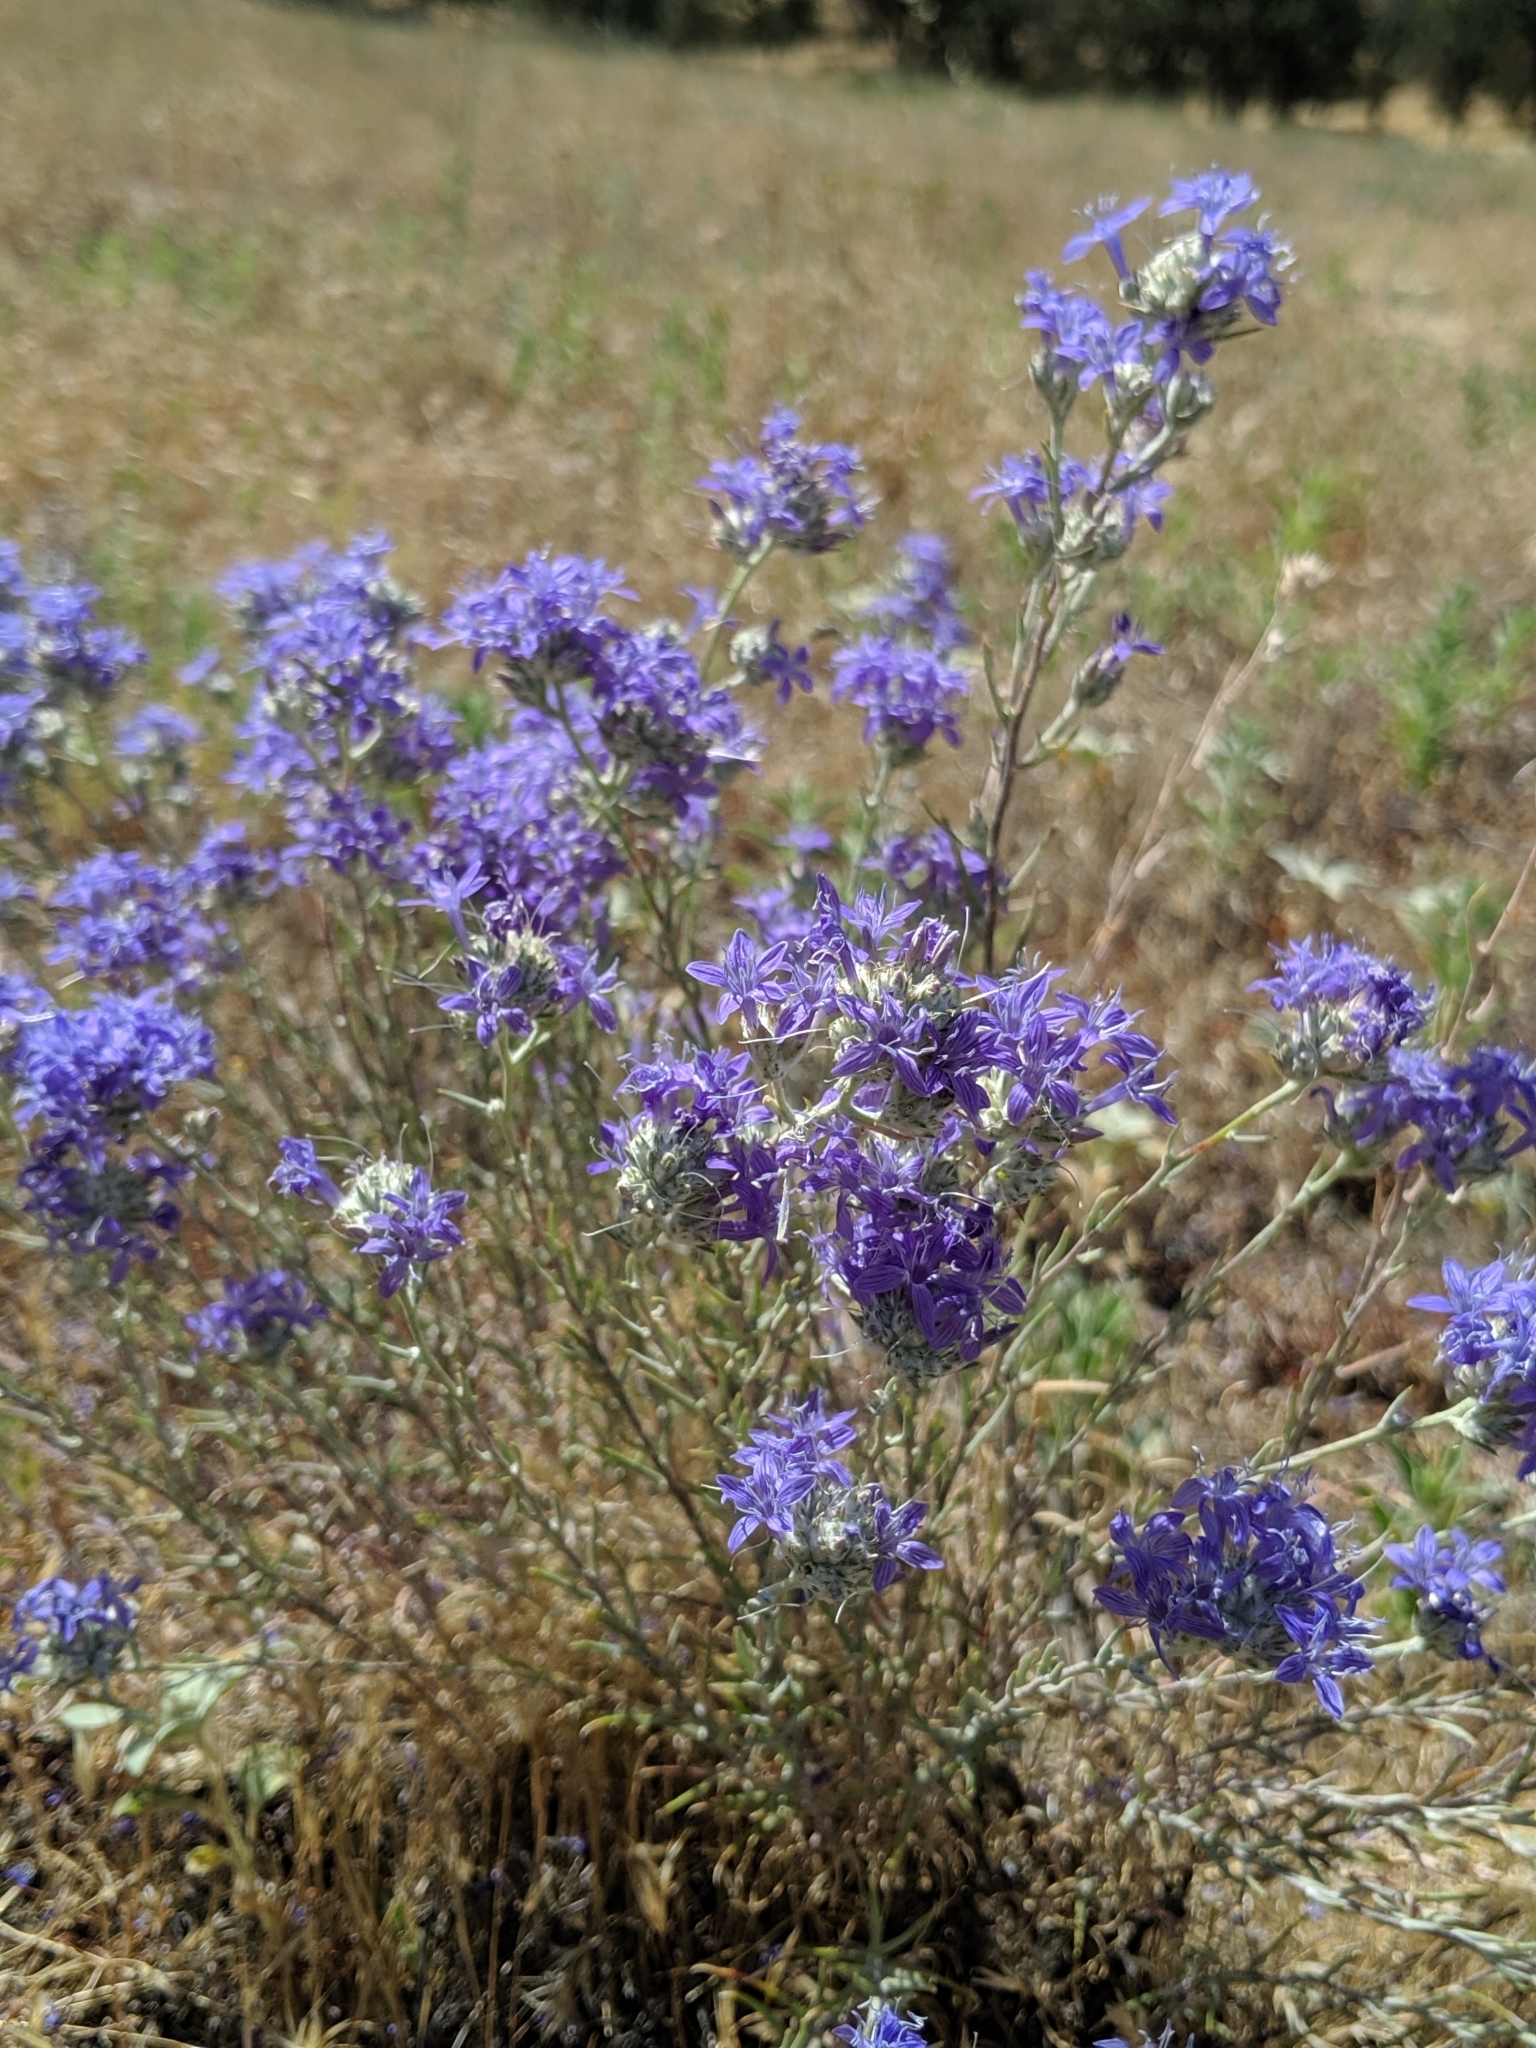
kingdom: Plantae
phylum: Tracheophyta
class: Magnoliopsida
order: Ericales
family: Polemoniaceae
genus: Eriastrum
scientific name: Eriastrum densifolium
